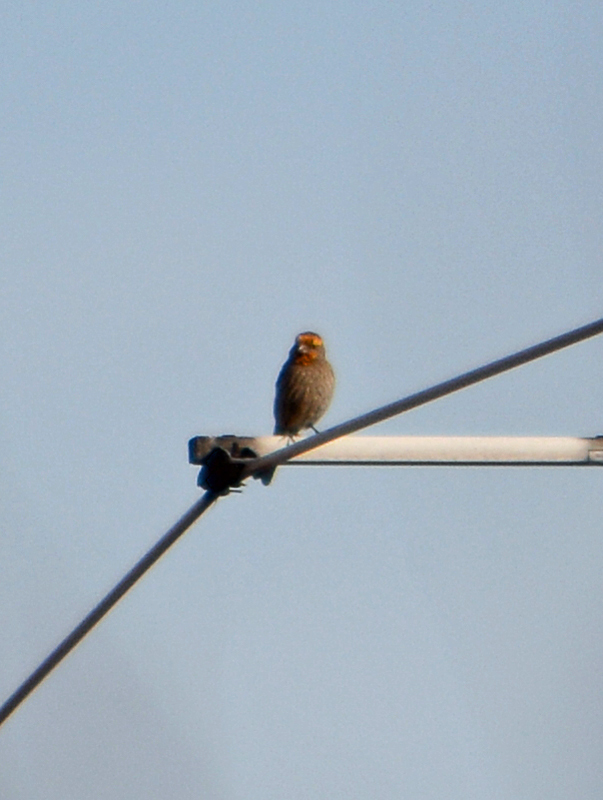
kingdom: Animalia
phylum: Chordata
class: Aves
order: Passeriformes
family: Fringillidae
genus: Haemorhous
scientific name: Haemorhous mexicanus
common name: House finch
